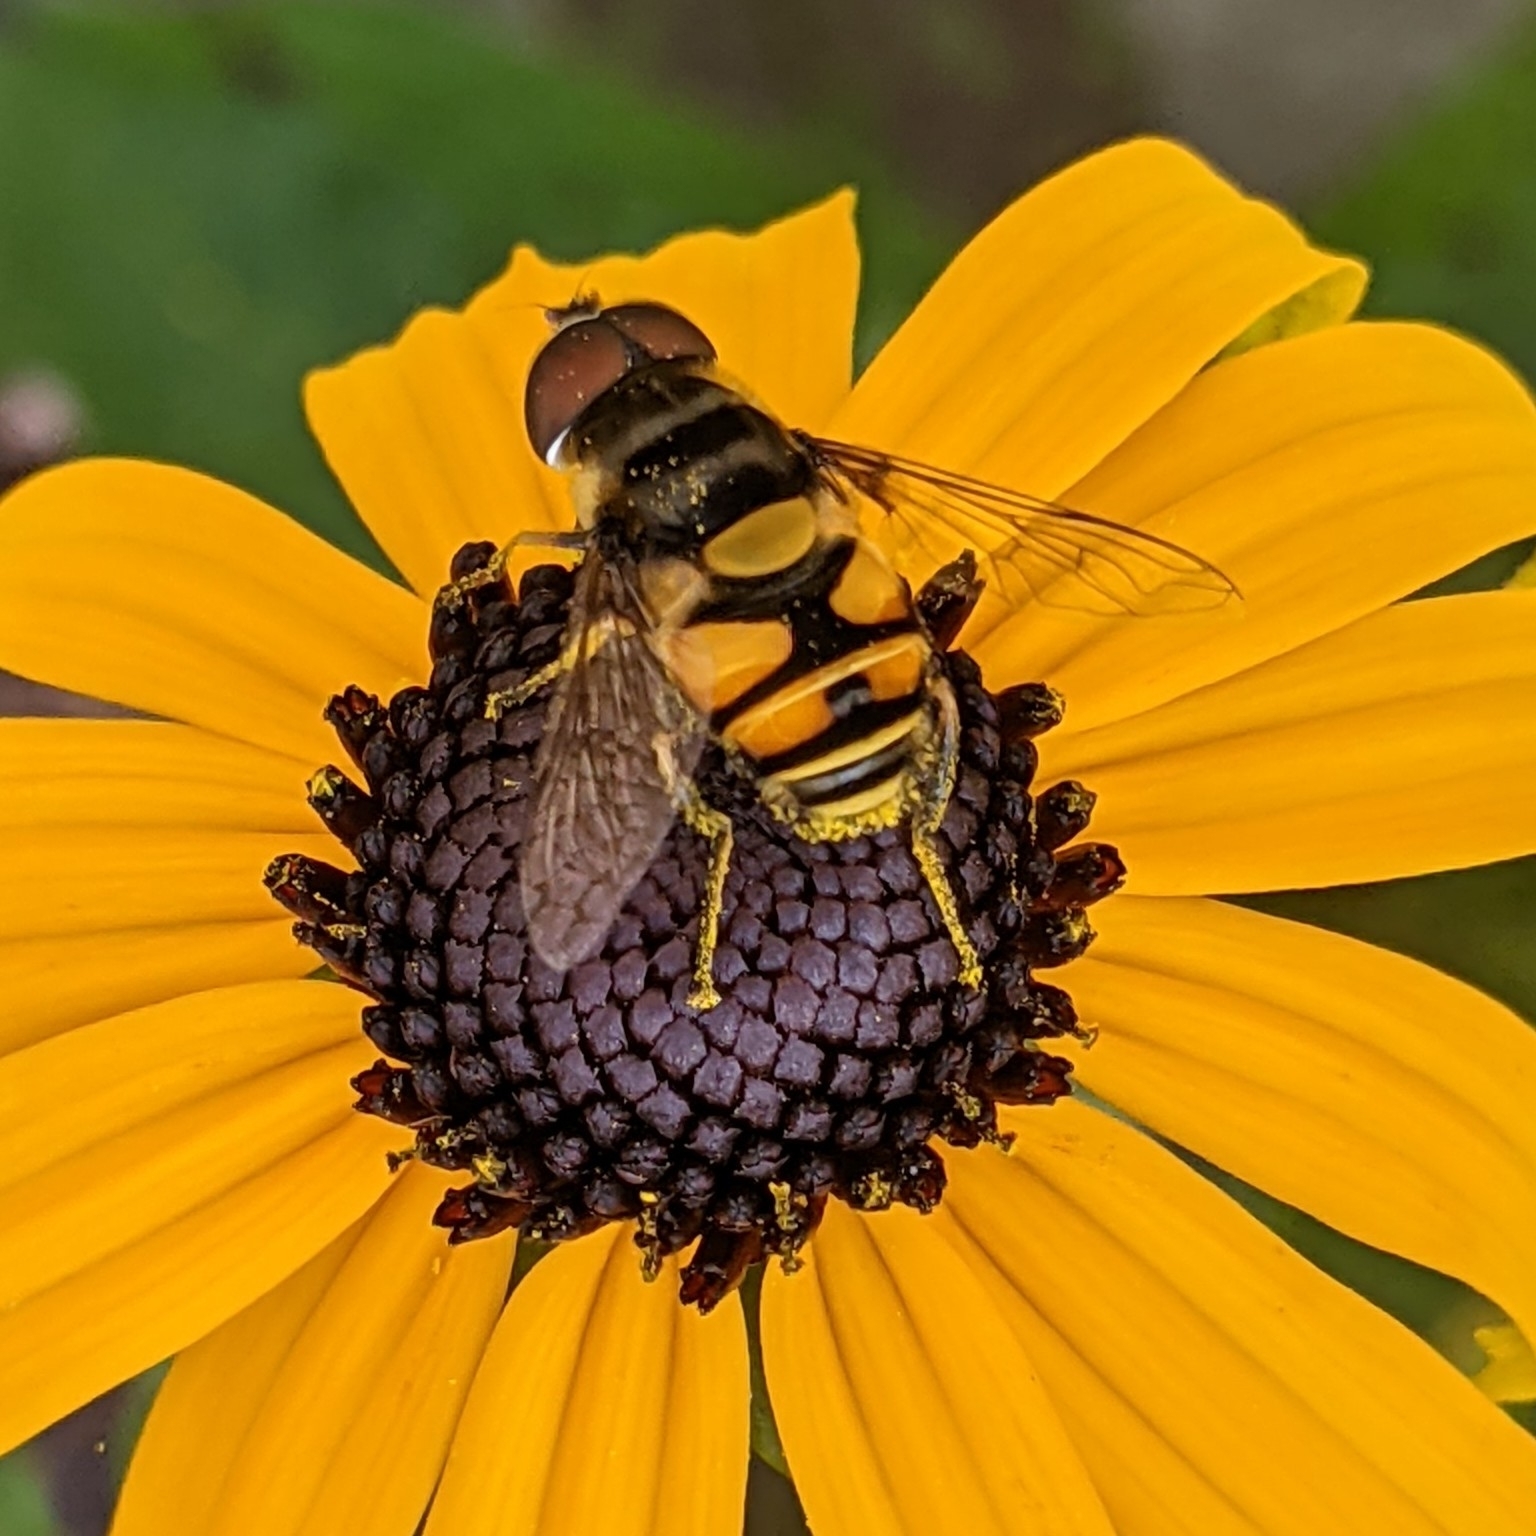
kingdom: Animalia
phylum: Arthropoda
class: Insecta
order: Diptera
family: Syrphidae
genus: Eristalis
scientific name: Eristalis transversa
